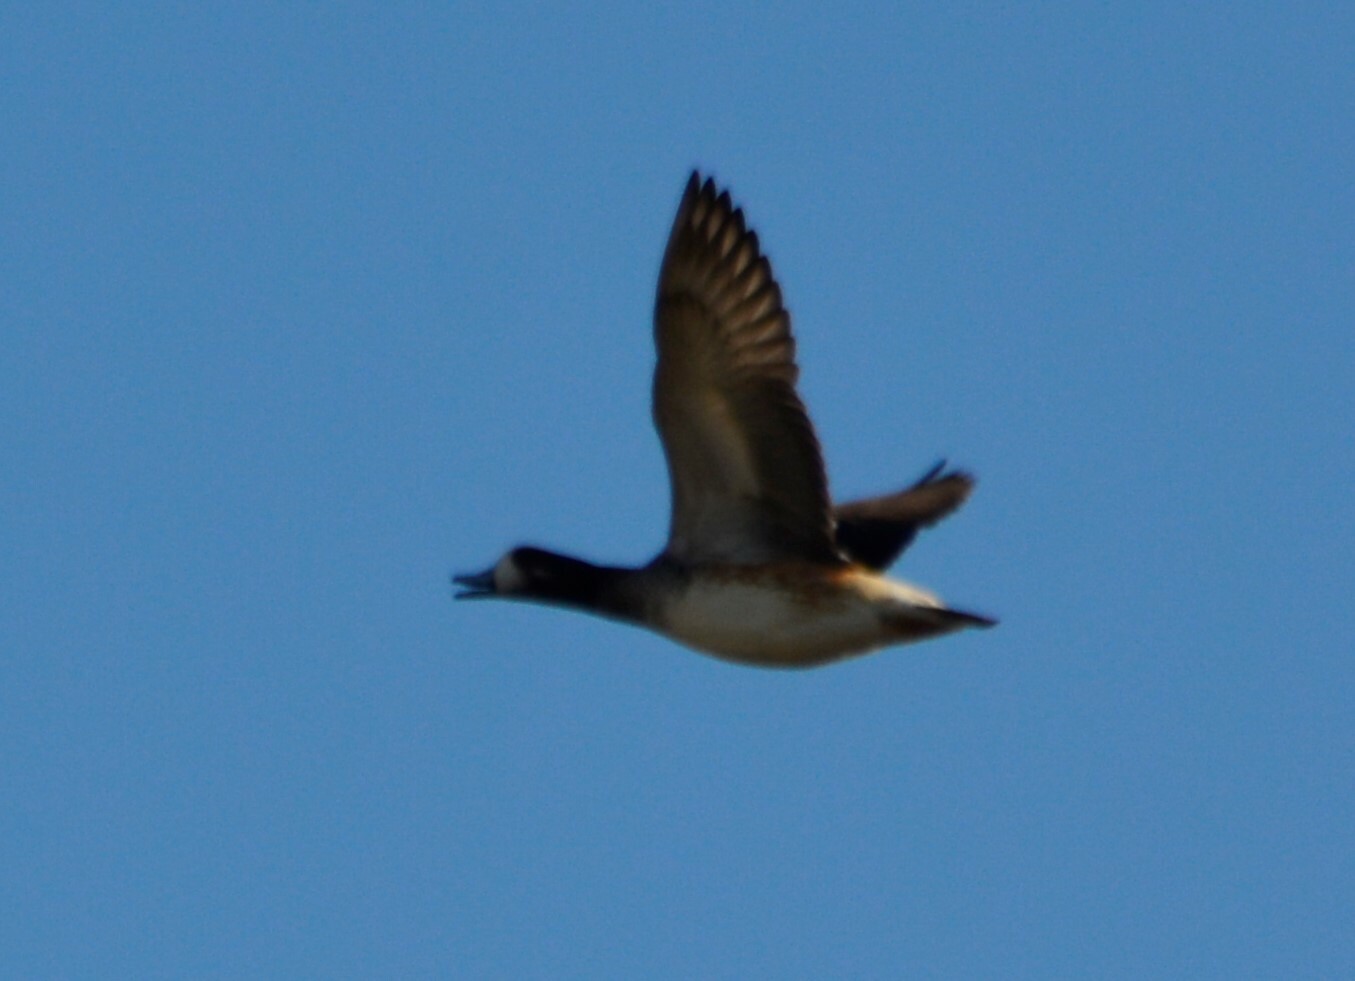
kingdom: Animalia
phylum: Chordata
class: Aves
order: Anseriformes
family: Anatidae
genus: Mareca
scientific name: Mareca sibilatrix
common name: Chiloe wigeon
